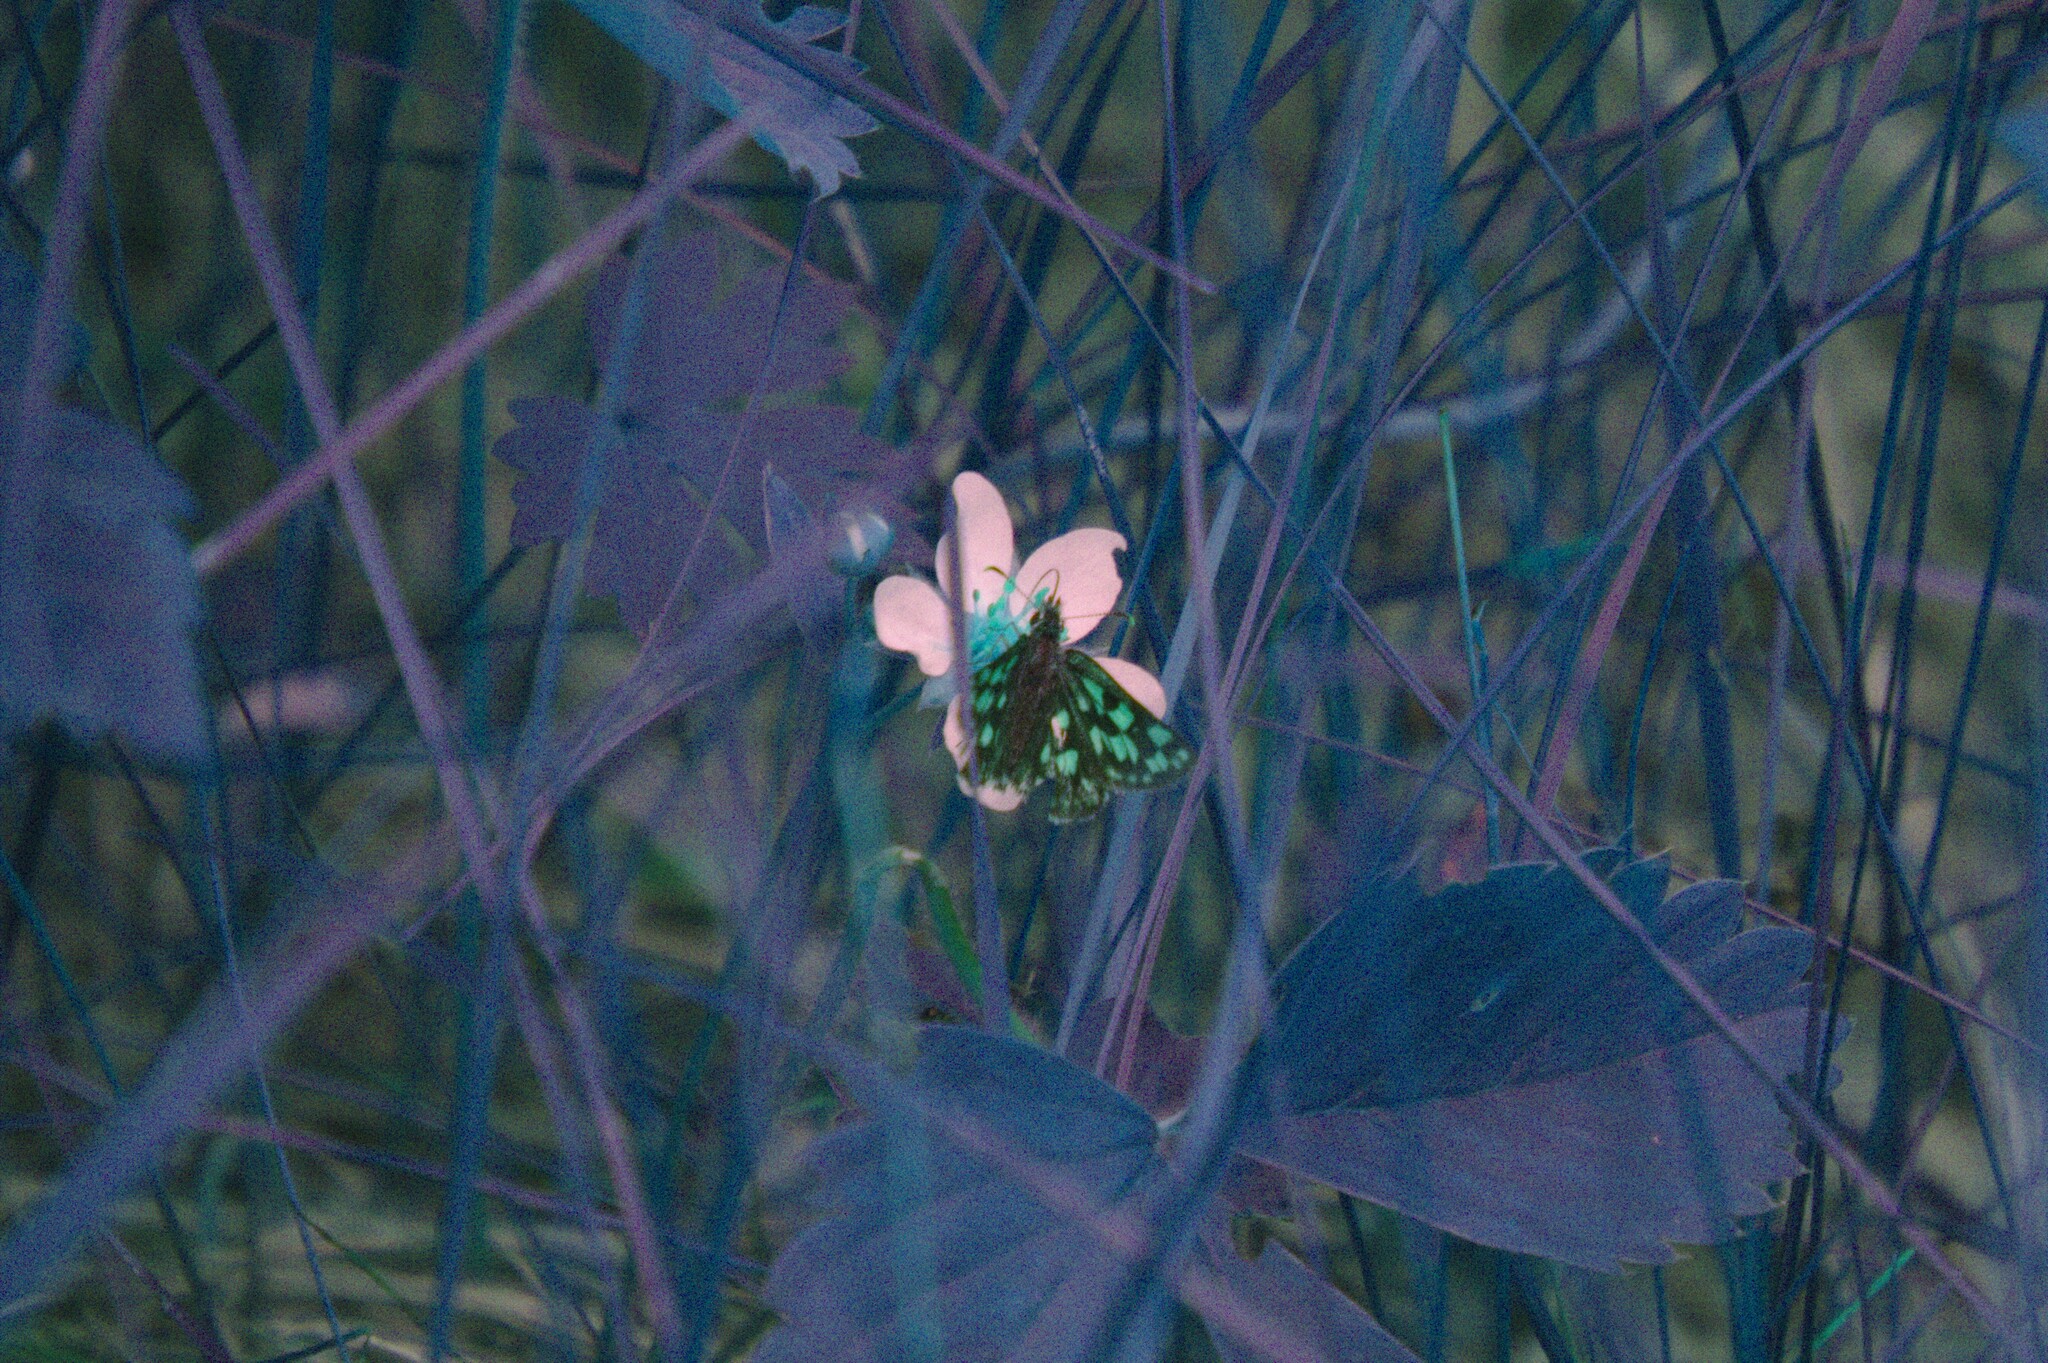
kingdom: Plantae
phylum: Tracheophyta
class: Magnoliopsida
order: Rosales
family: Rosaceae
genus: Fragaria
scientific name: Fragaria virginiana
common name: Thickleaved wild strawberry
